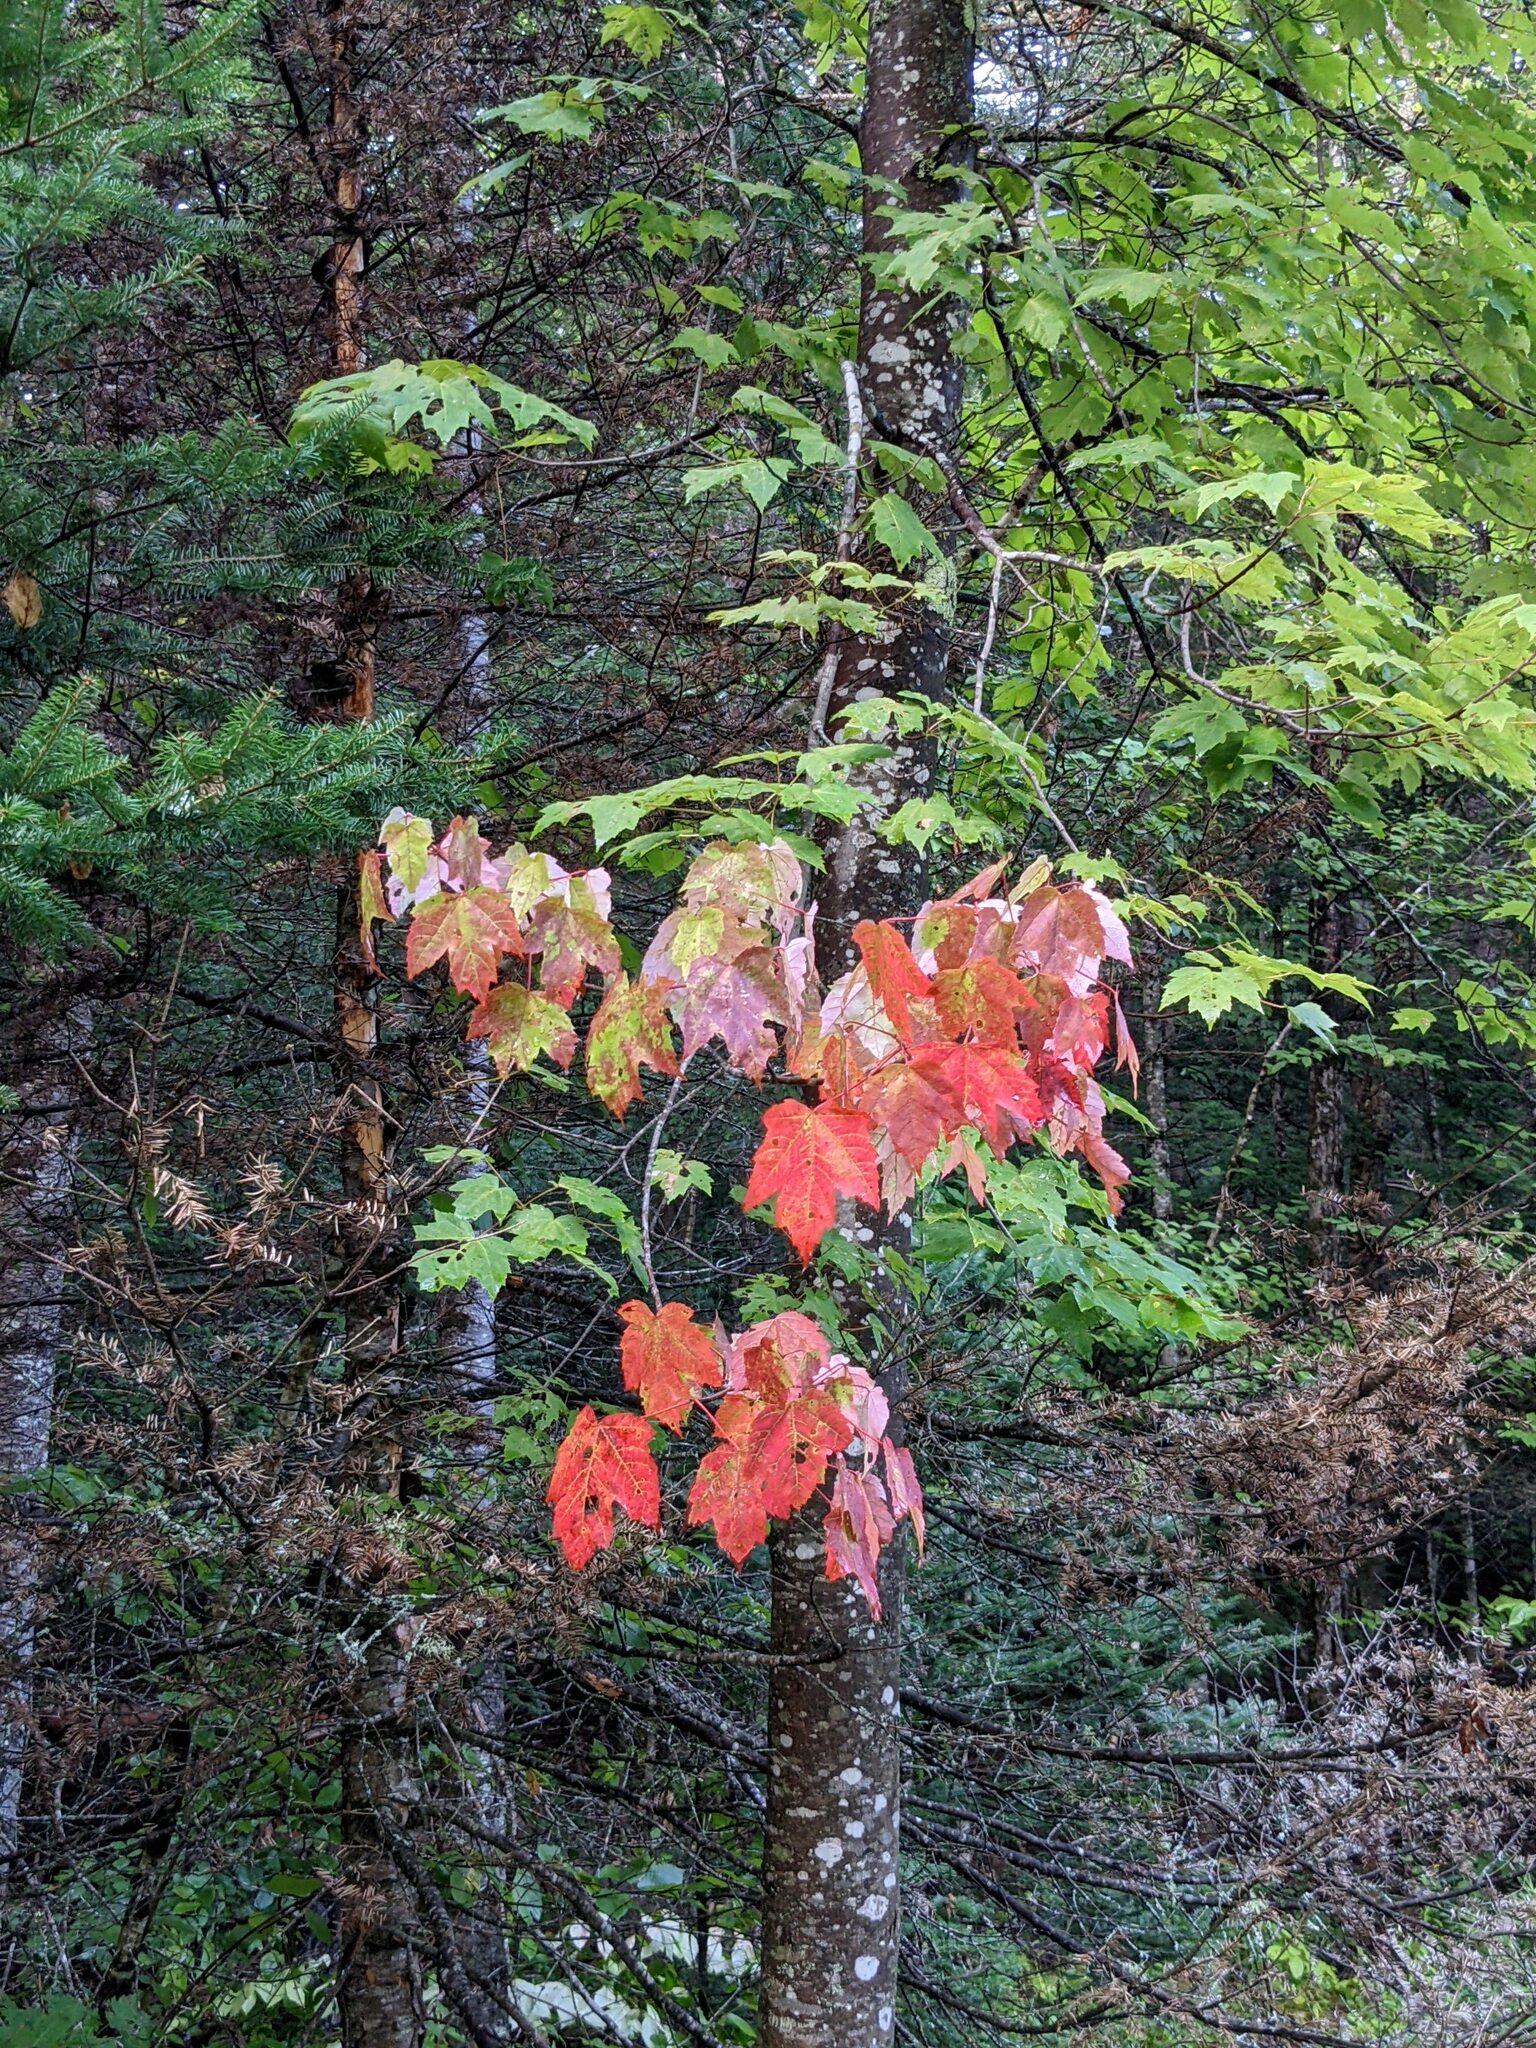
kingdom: Plantae
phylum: Tracheophyta
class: Magnoliopsida
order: Sapindales
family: Sapindaceae
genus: Acer
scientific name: Acer rubrum
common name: Red maple
